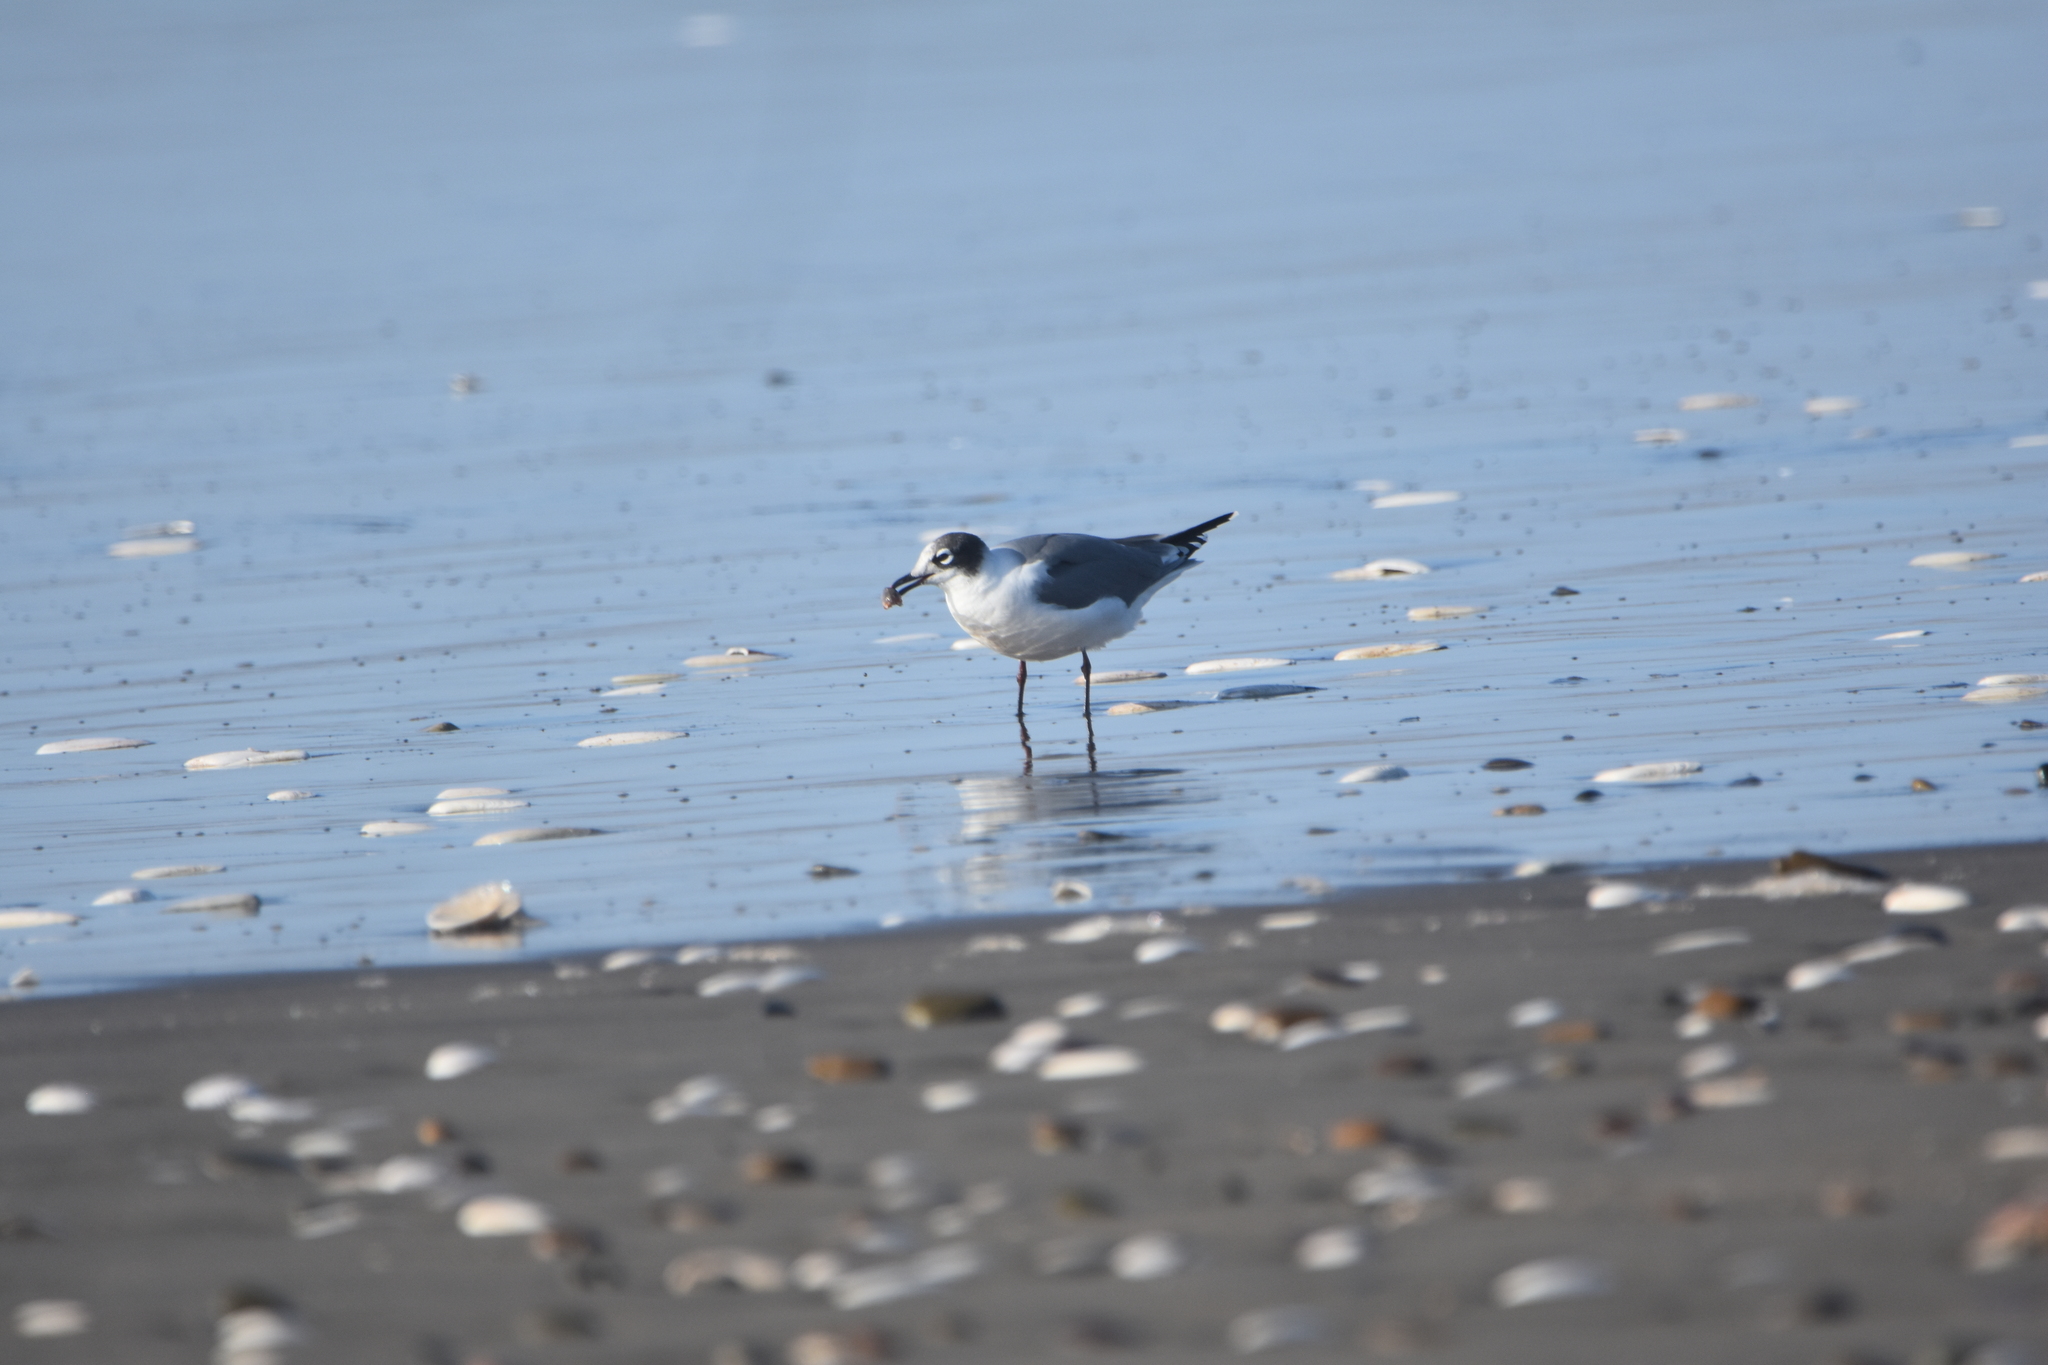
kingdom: Animalia
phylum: Chordata
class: Aves
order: Charadriiformes
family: Laridae
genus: Leucophaeus
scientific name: Leucophaeus pipixcan
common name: Franklin's gull
